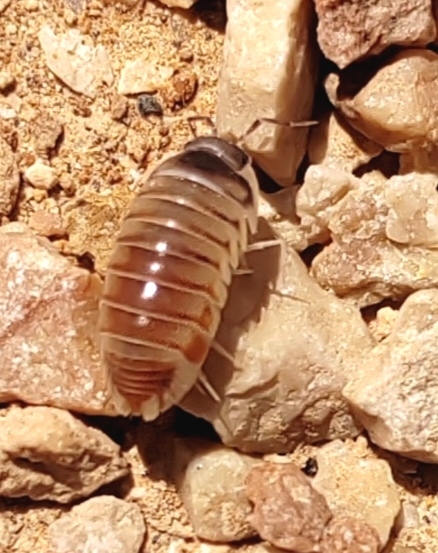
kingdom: Animalia
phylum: Arthropoda
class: Malacostraca
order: Isopoda
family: Eubelidae
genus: Periscyphis
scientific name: Periscyphis omanensis
